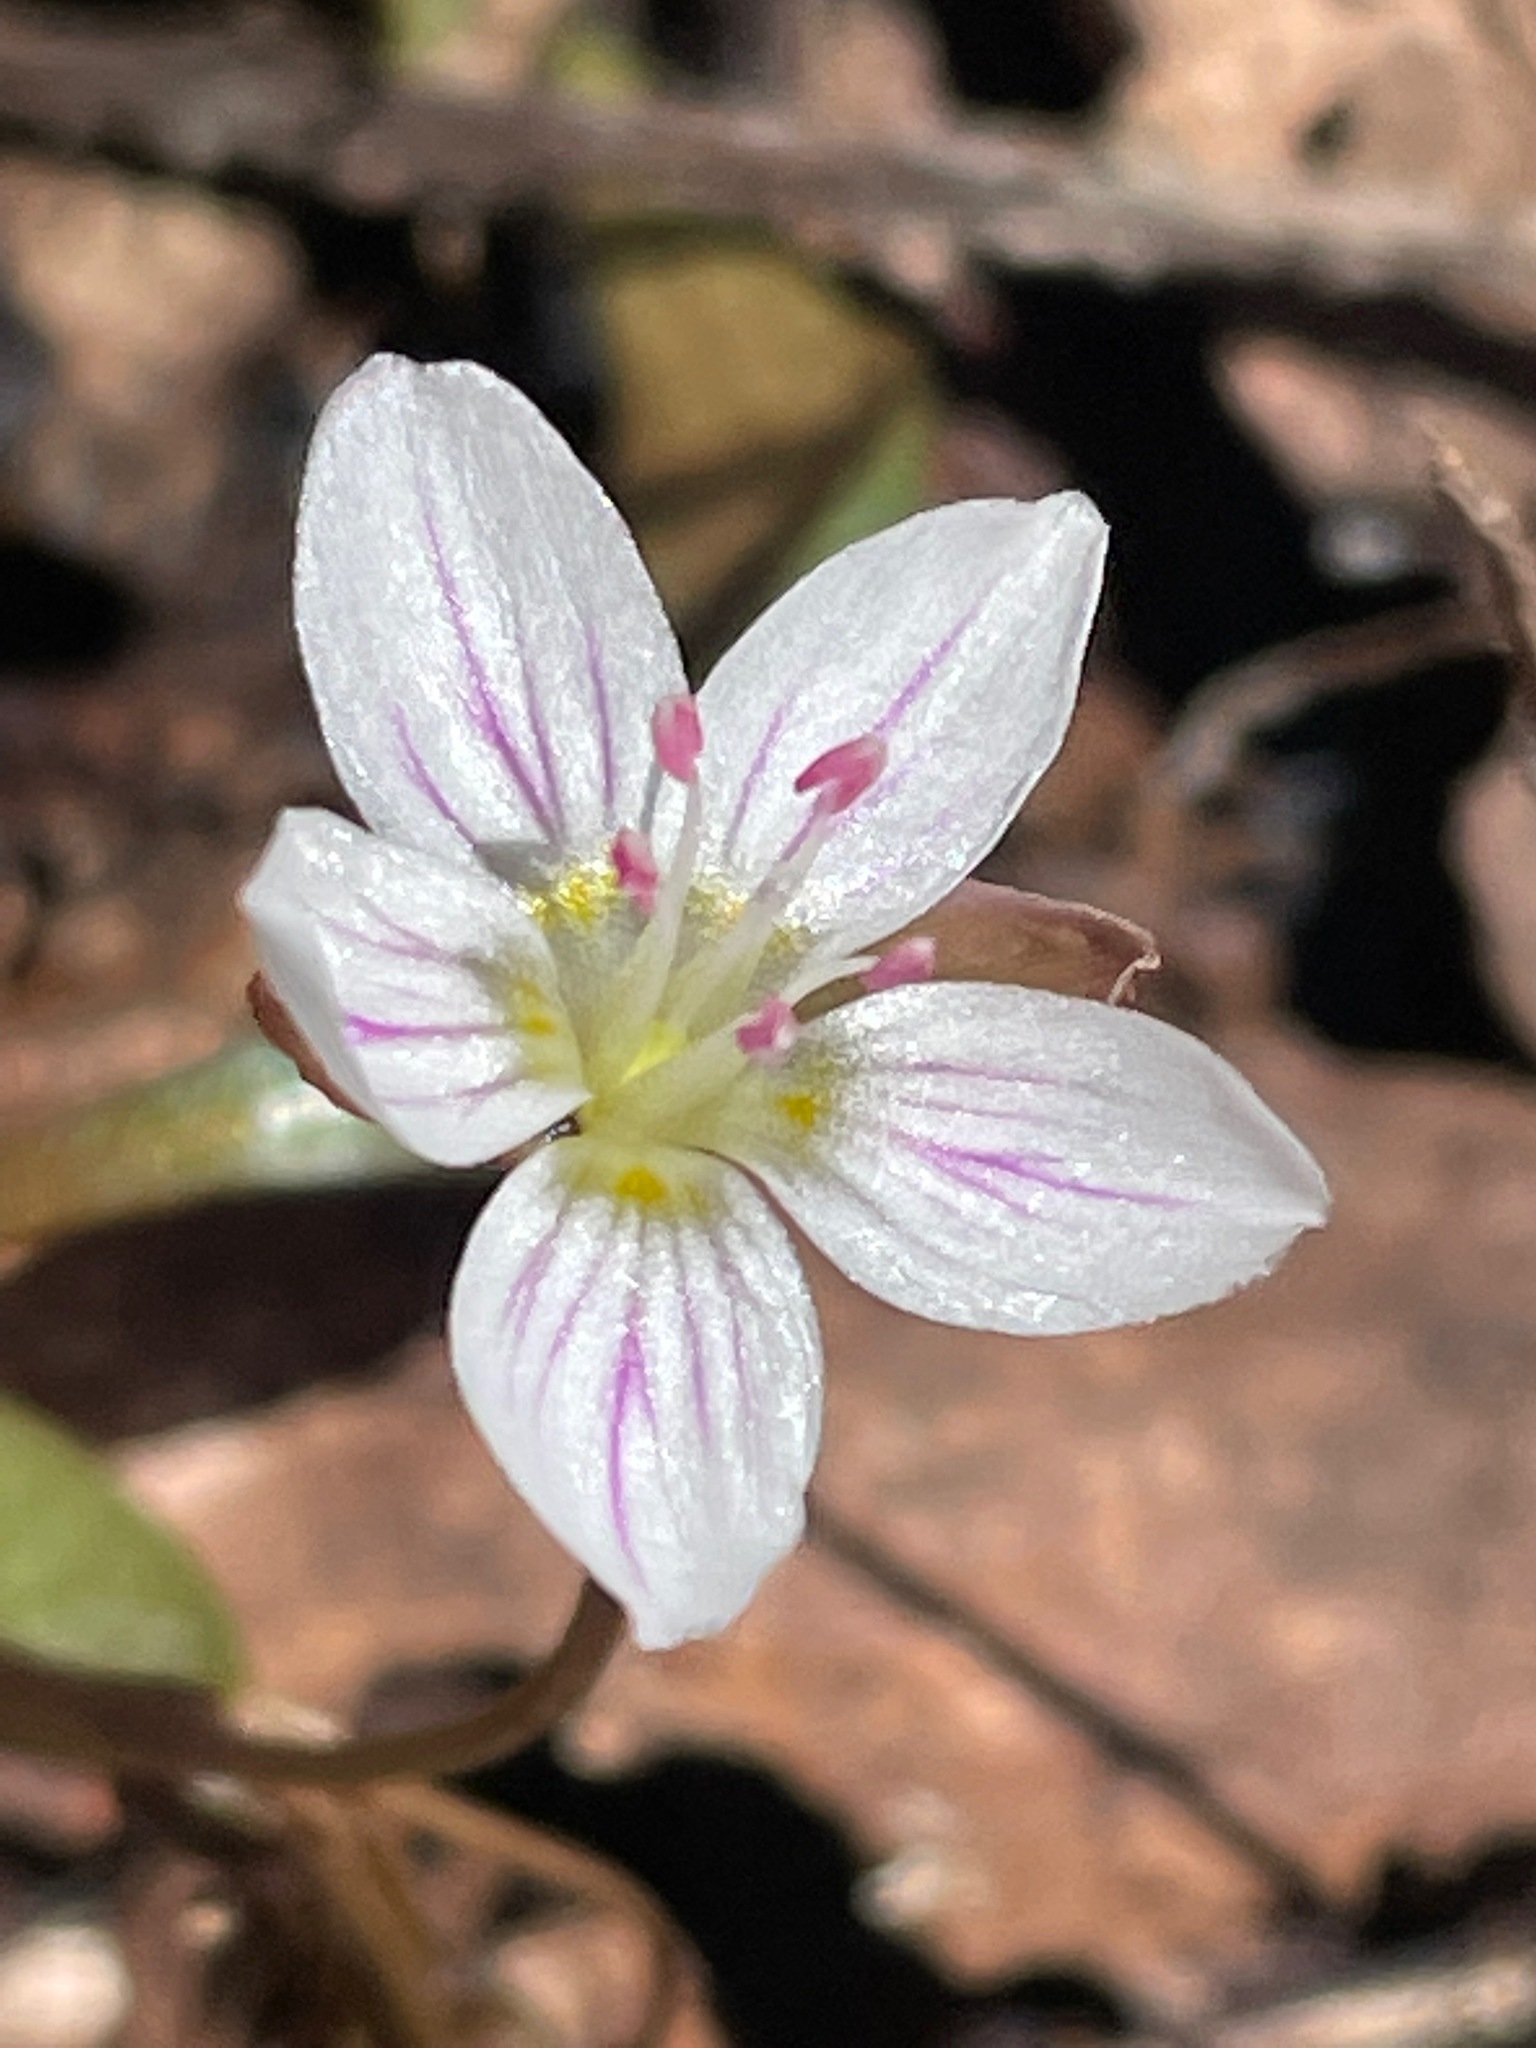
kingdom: Plantae
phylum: Tracheophyta
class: Magnoliopsida
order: Caryophyllales
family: Montiaceae
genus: Claytonia
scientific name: Claytonia caroliniana
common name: Carolina spring beauty
